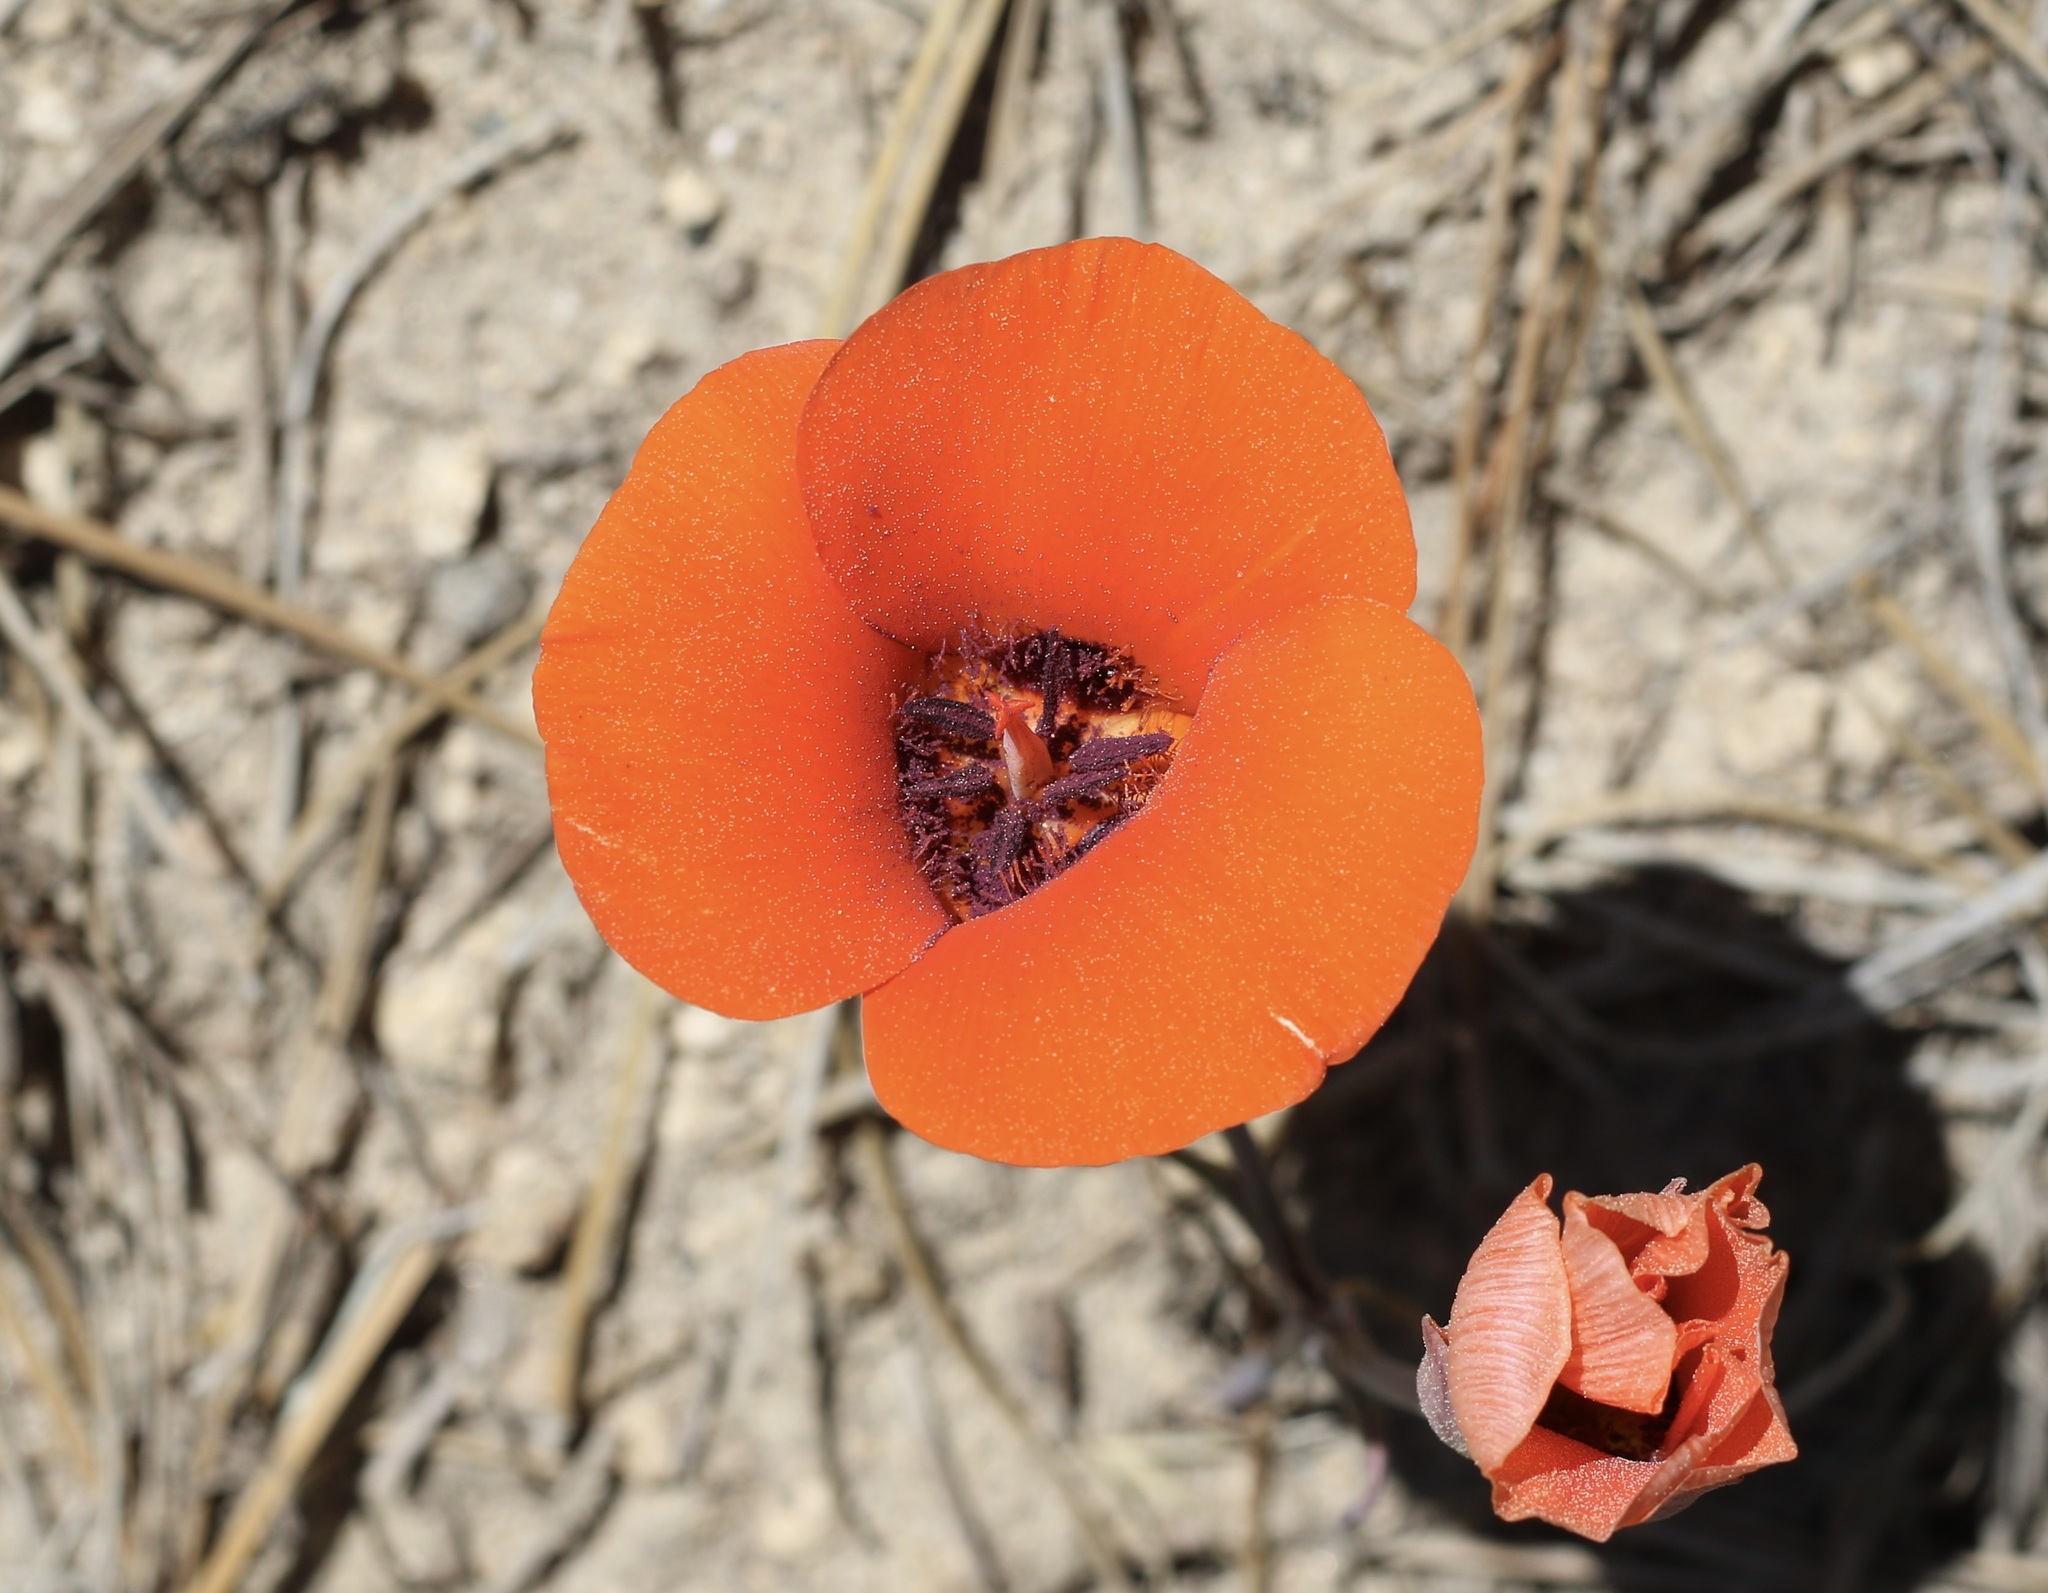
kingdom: Plantae
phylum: Tracheophyta
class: Liliopsida
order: Liliales
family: Liliaceae
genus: Calochortus
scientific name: Calochortus kennedyi
